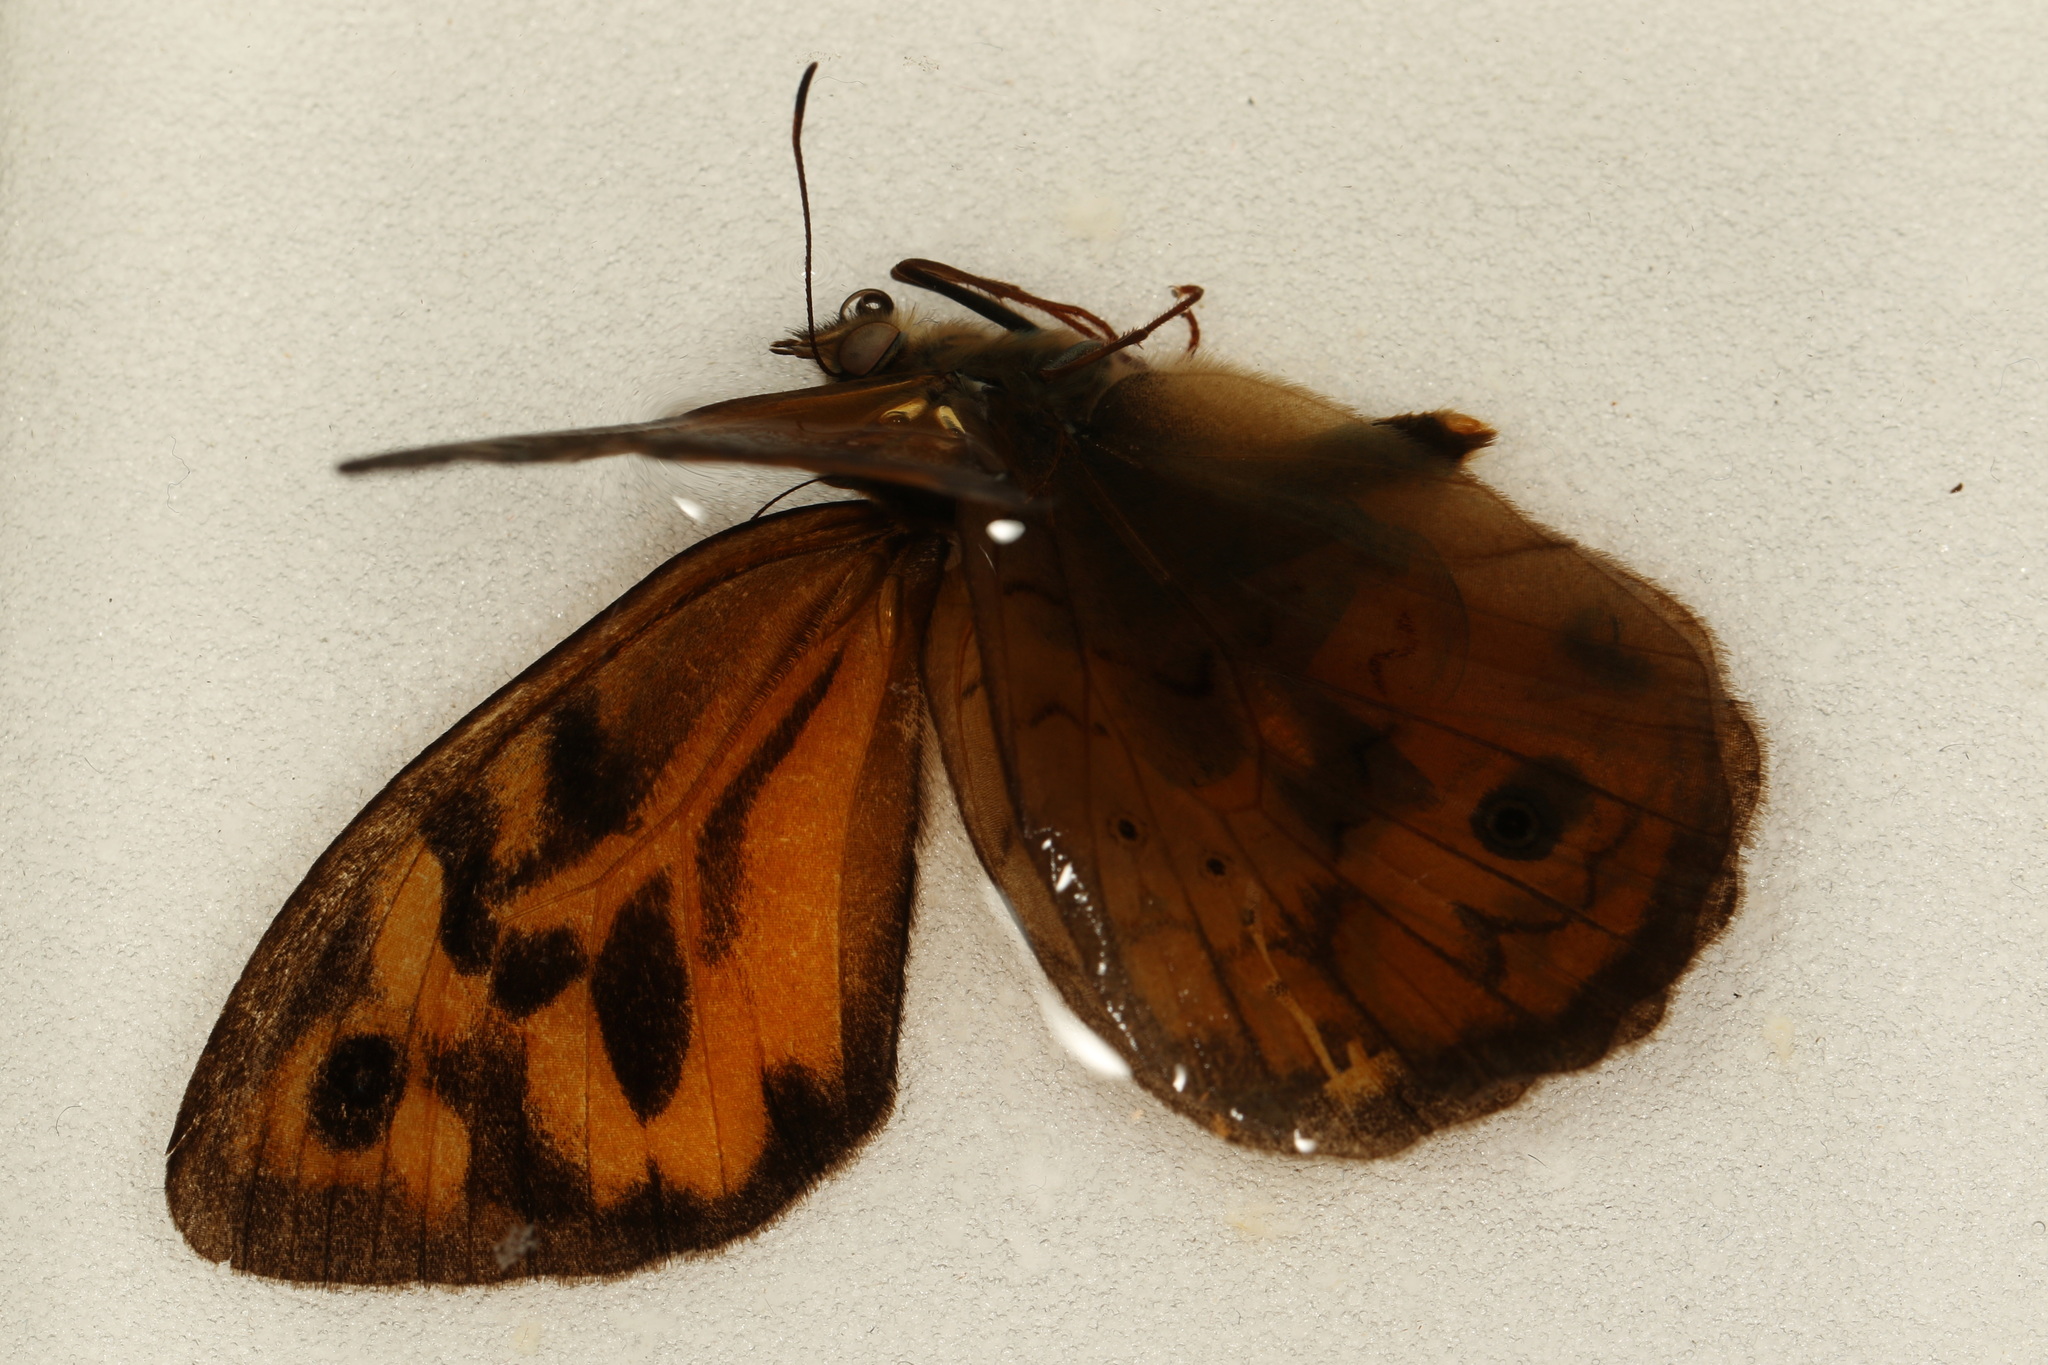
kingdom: Animalia
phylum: Arthropoda
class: Insecta
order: Lepidoptera
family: Nymphalidae
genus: Heteronympha
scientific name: Heteronympha merope
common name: Common brown
